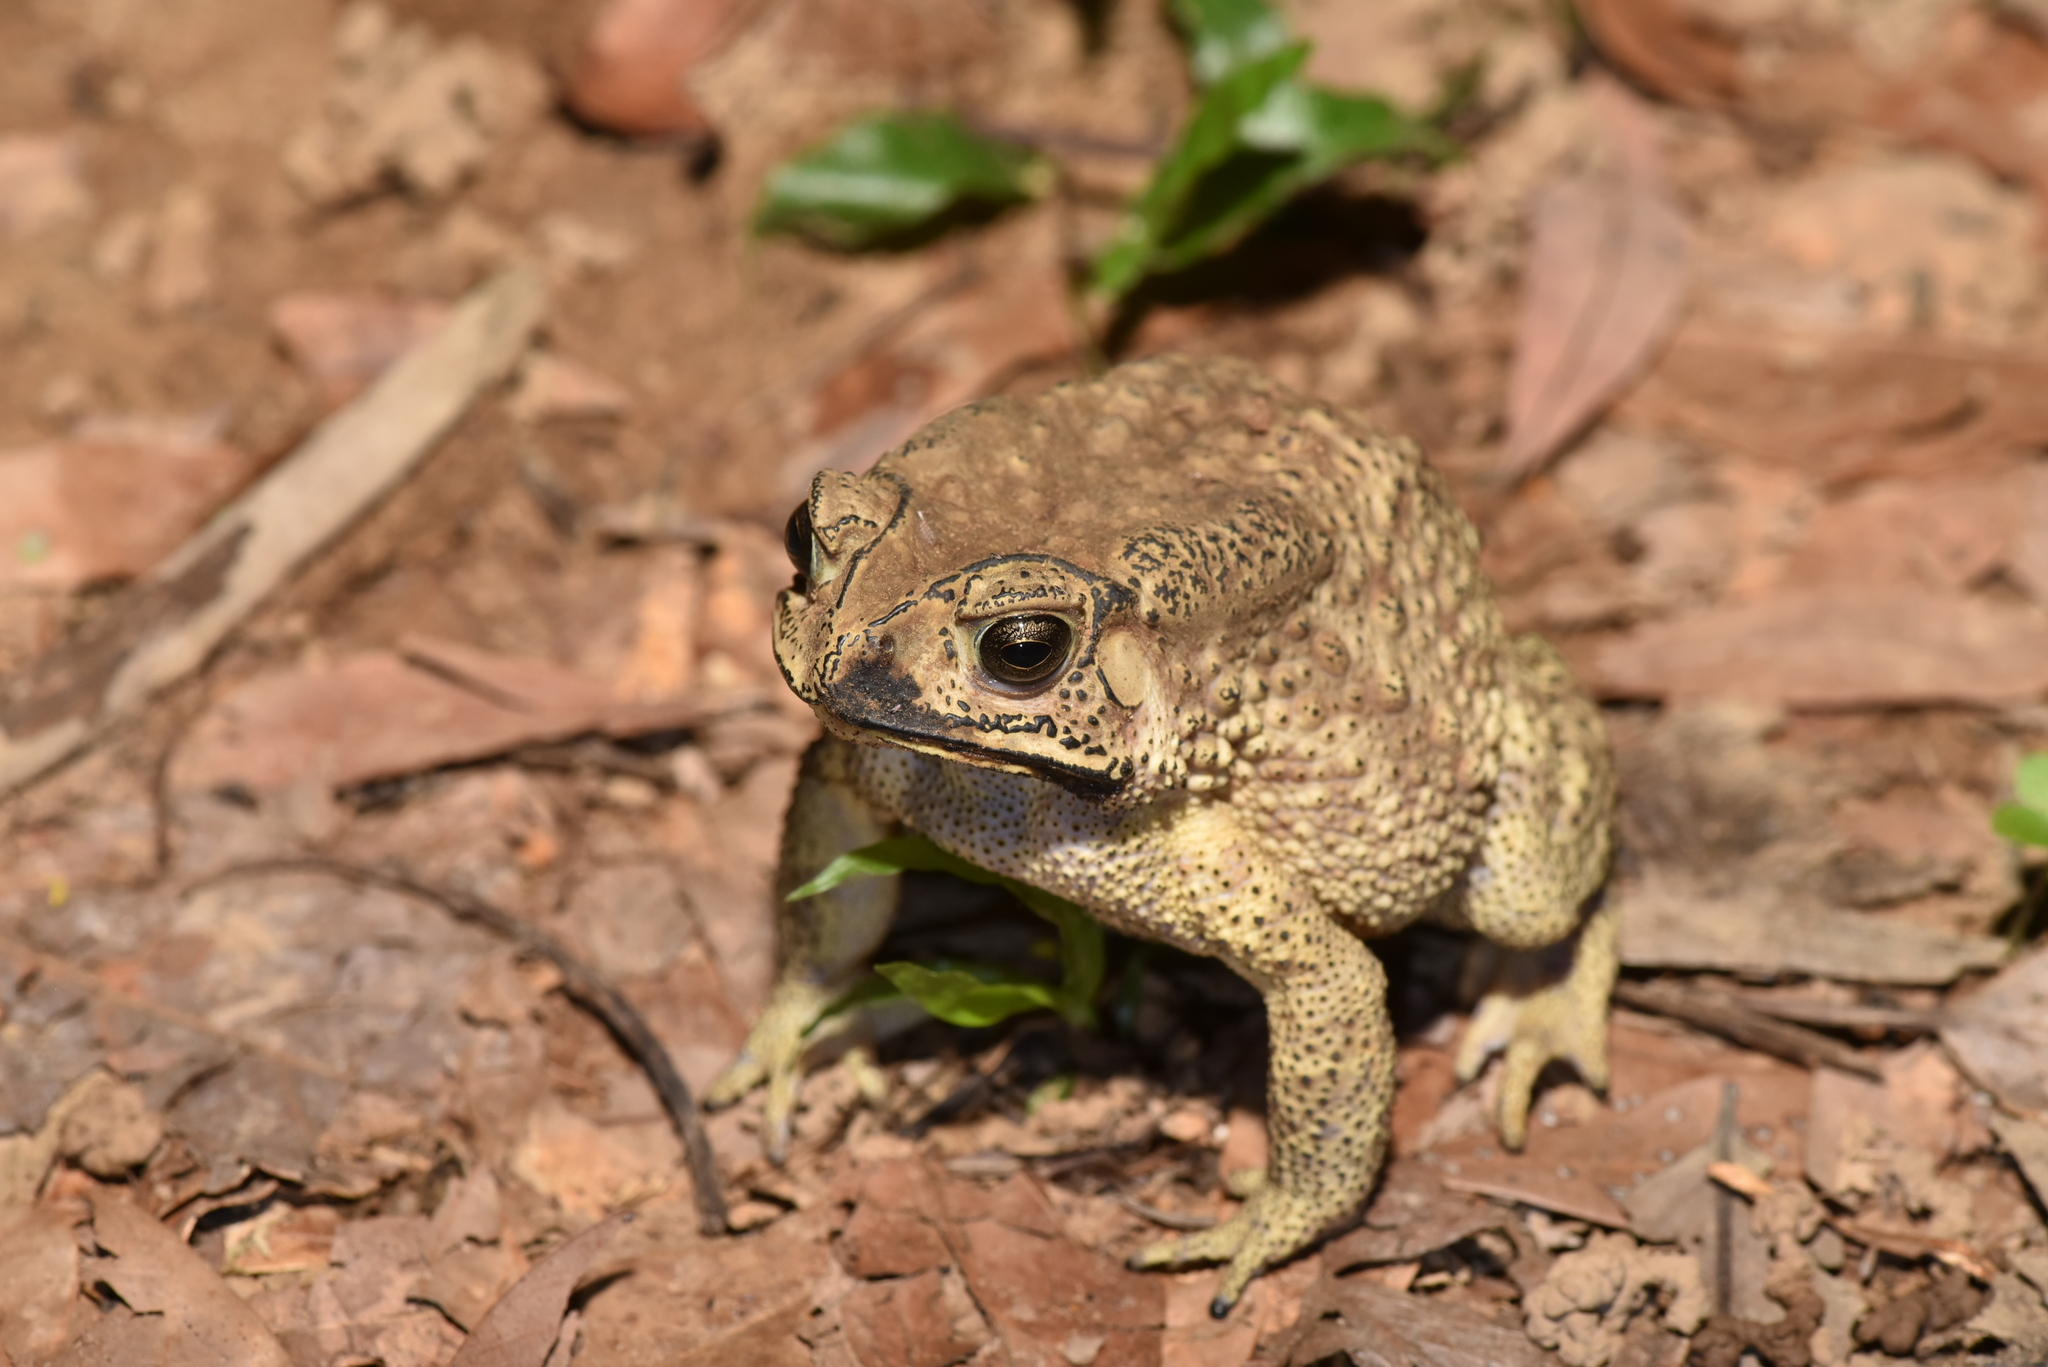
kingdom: Animalia
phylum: Chordata
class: Amphibia
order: Anura
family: Bufonidae
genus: Duttaphrynus
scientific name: Duttaphrynus melanostictus
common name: Common sunda toad
